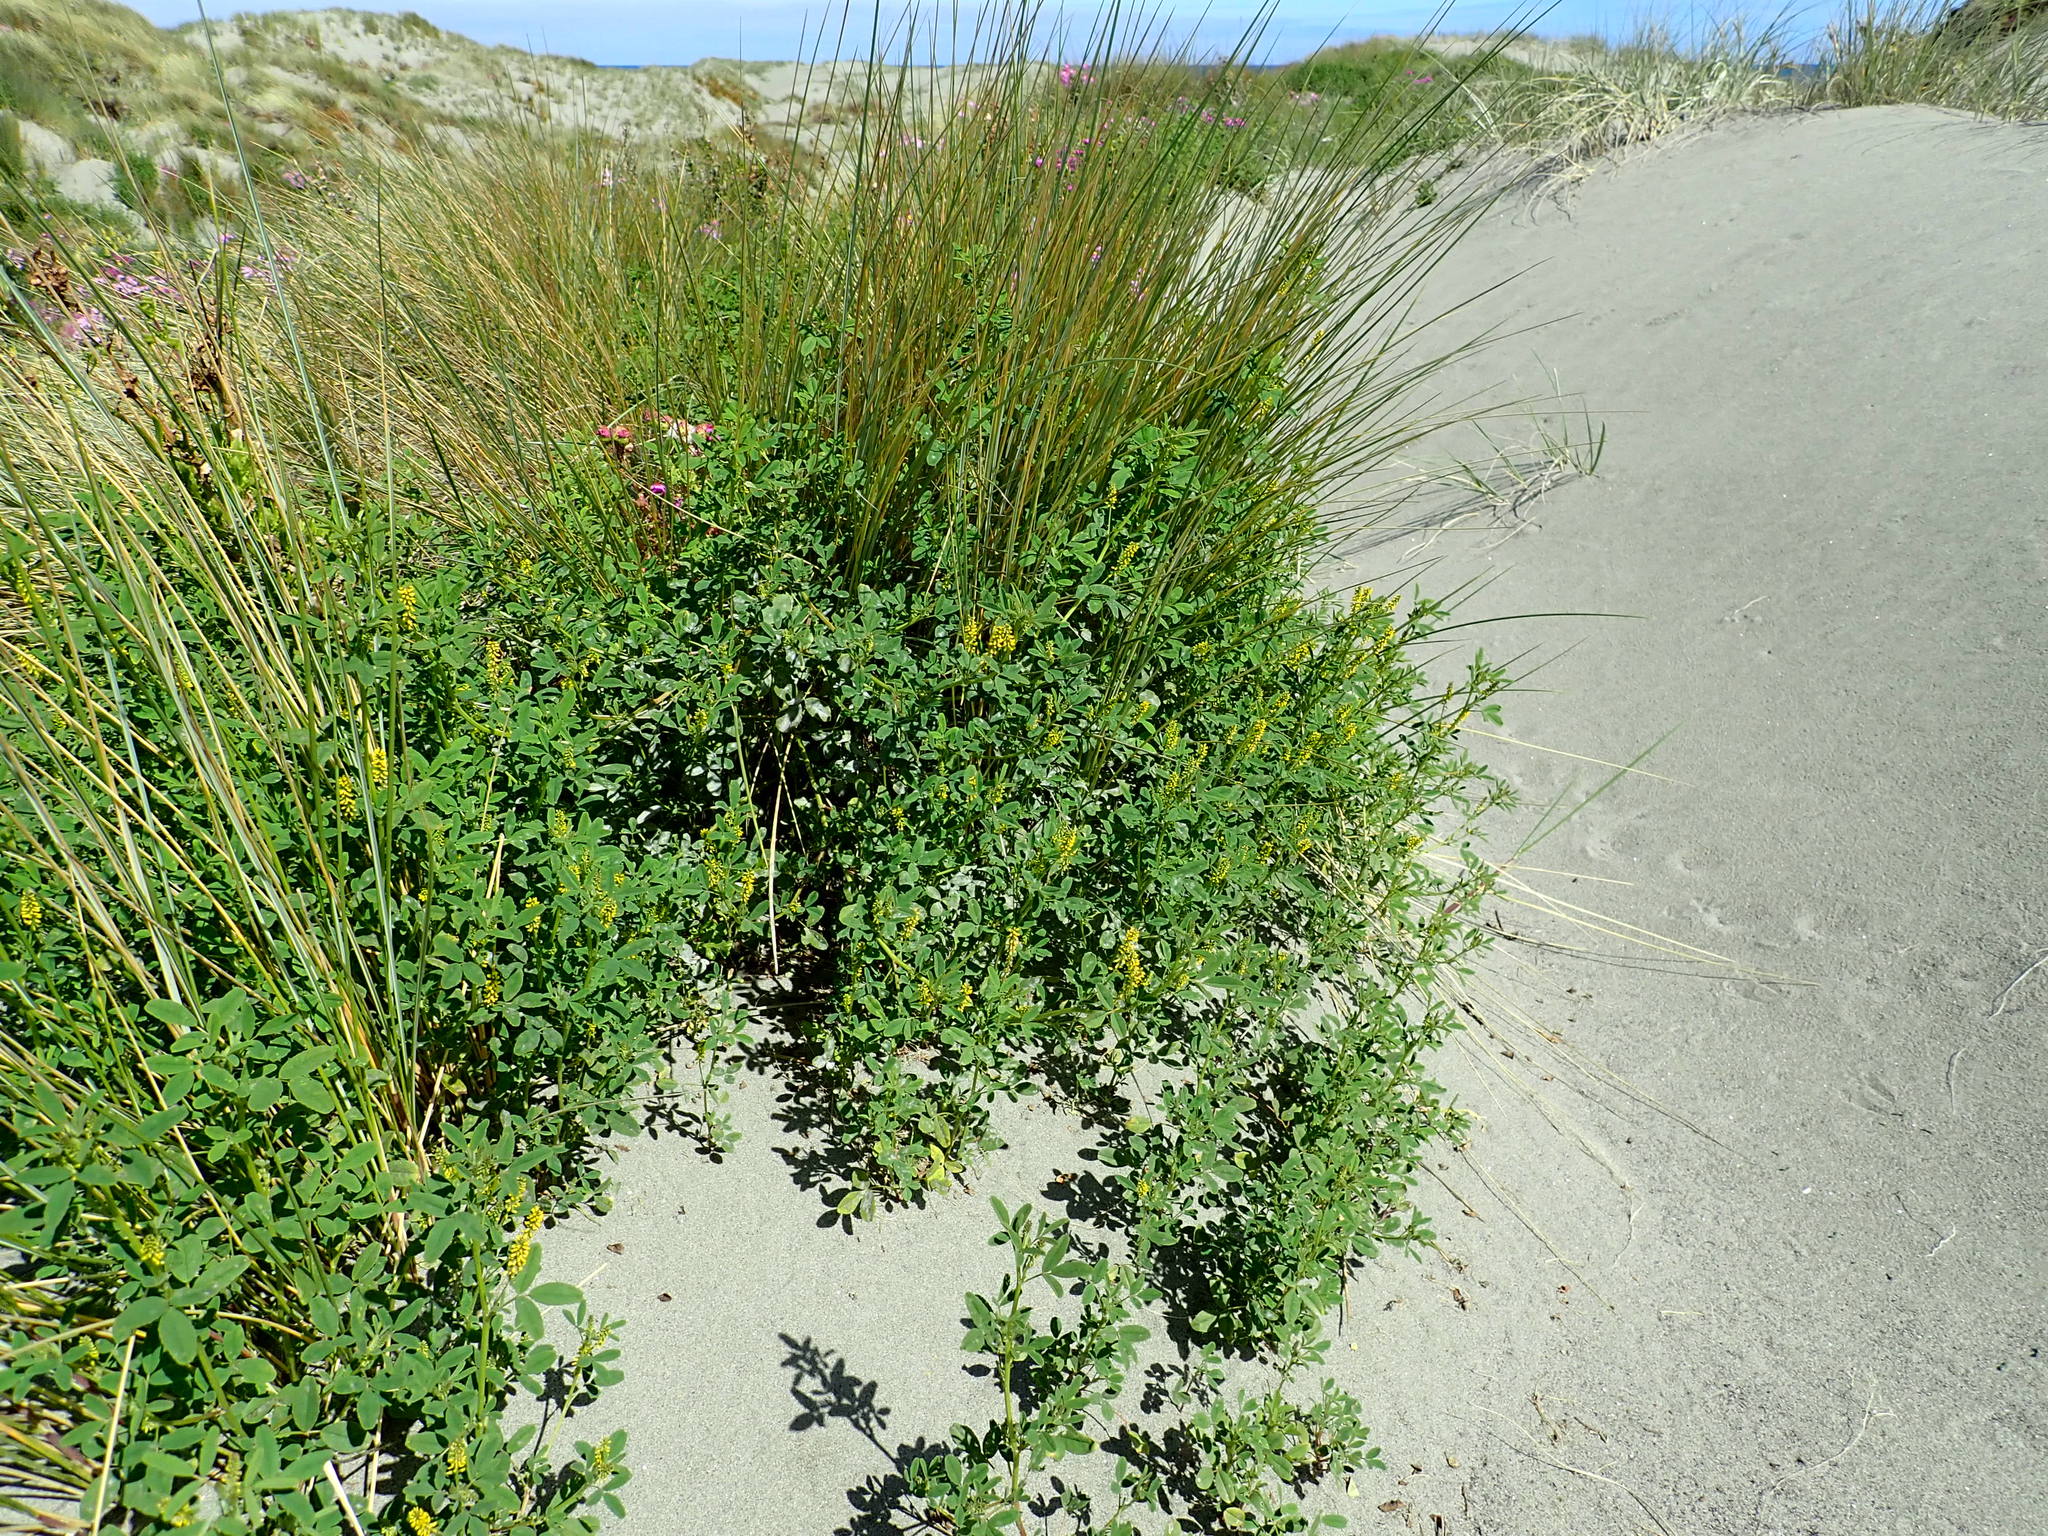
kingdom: Plantae
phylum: Tracheophyta
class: Magnoliopsida
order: Fabales
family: Fabaceae
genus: Melilotus
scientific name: Melilotus indicus
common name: Small melilot
